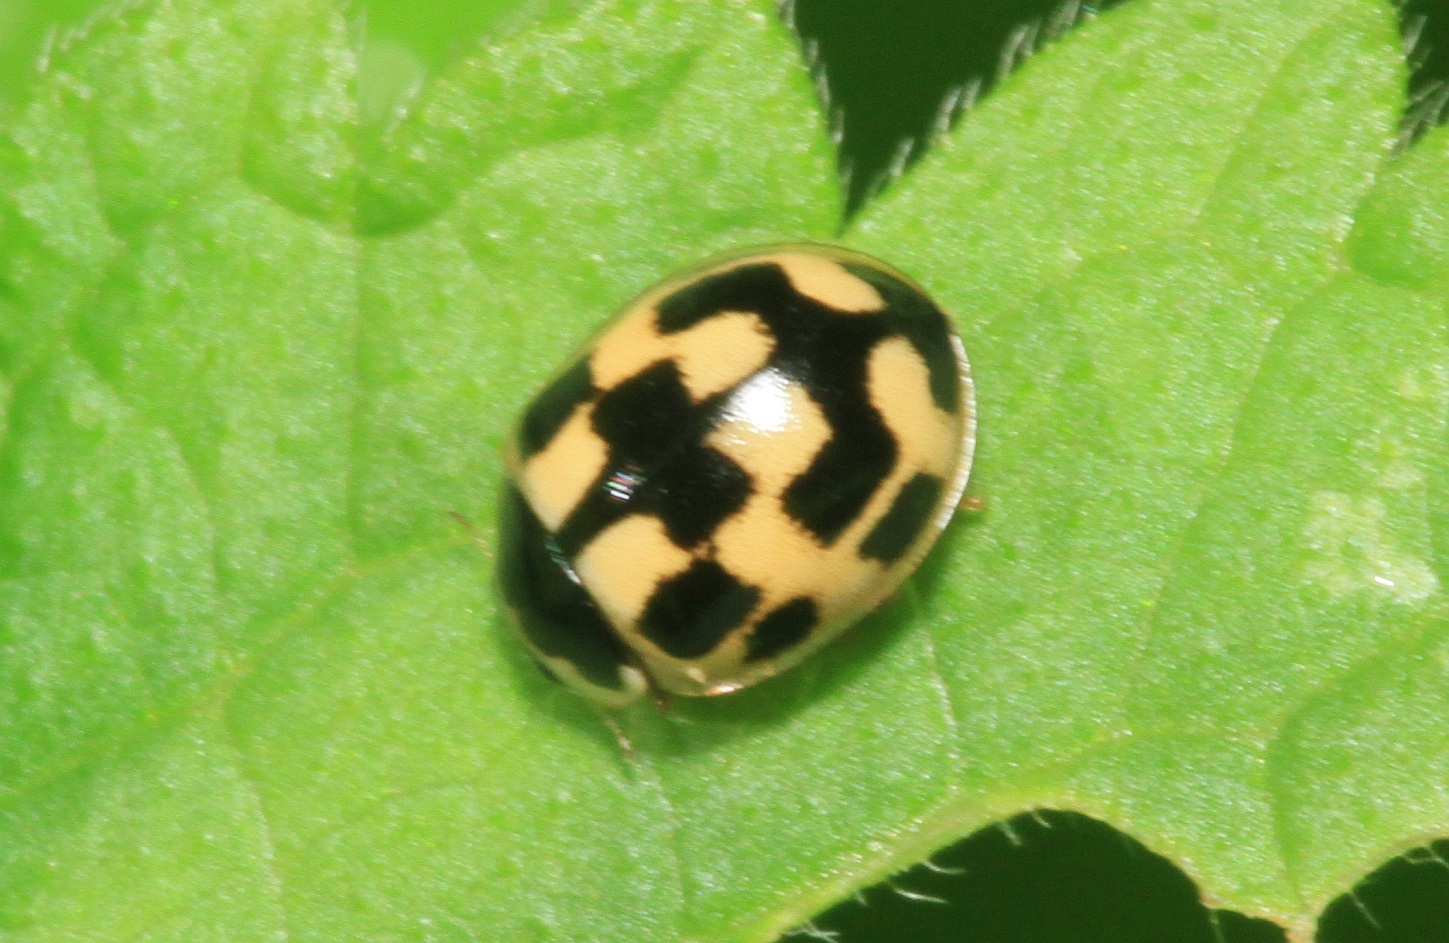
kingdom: Animalia
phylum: Arthropoda
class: Insecta
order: Coleoptera
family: Coccinellidae
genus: Propylaea
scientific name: Propylaea quatuordecimpunctata
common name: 14-spotted ladybird beetle
